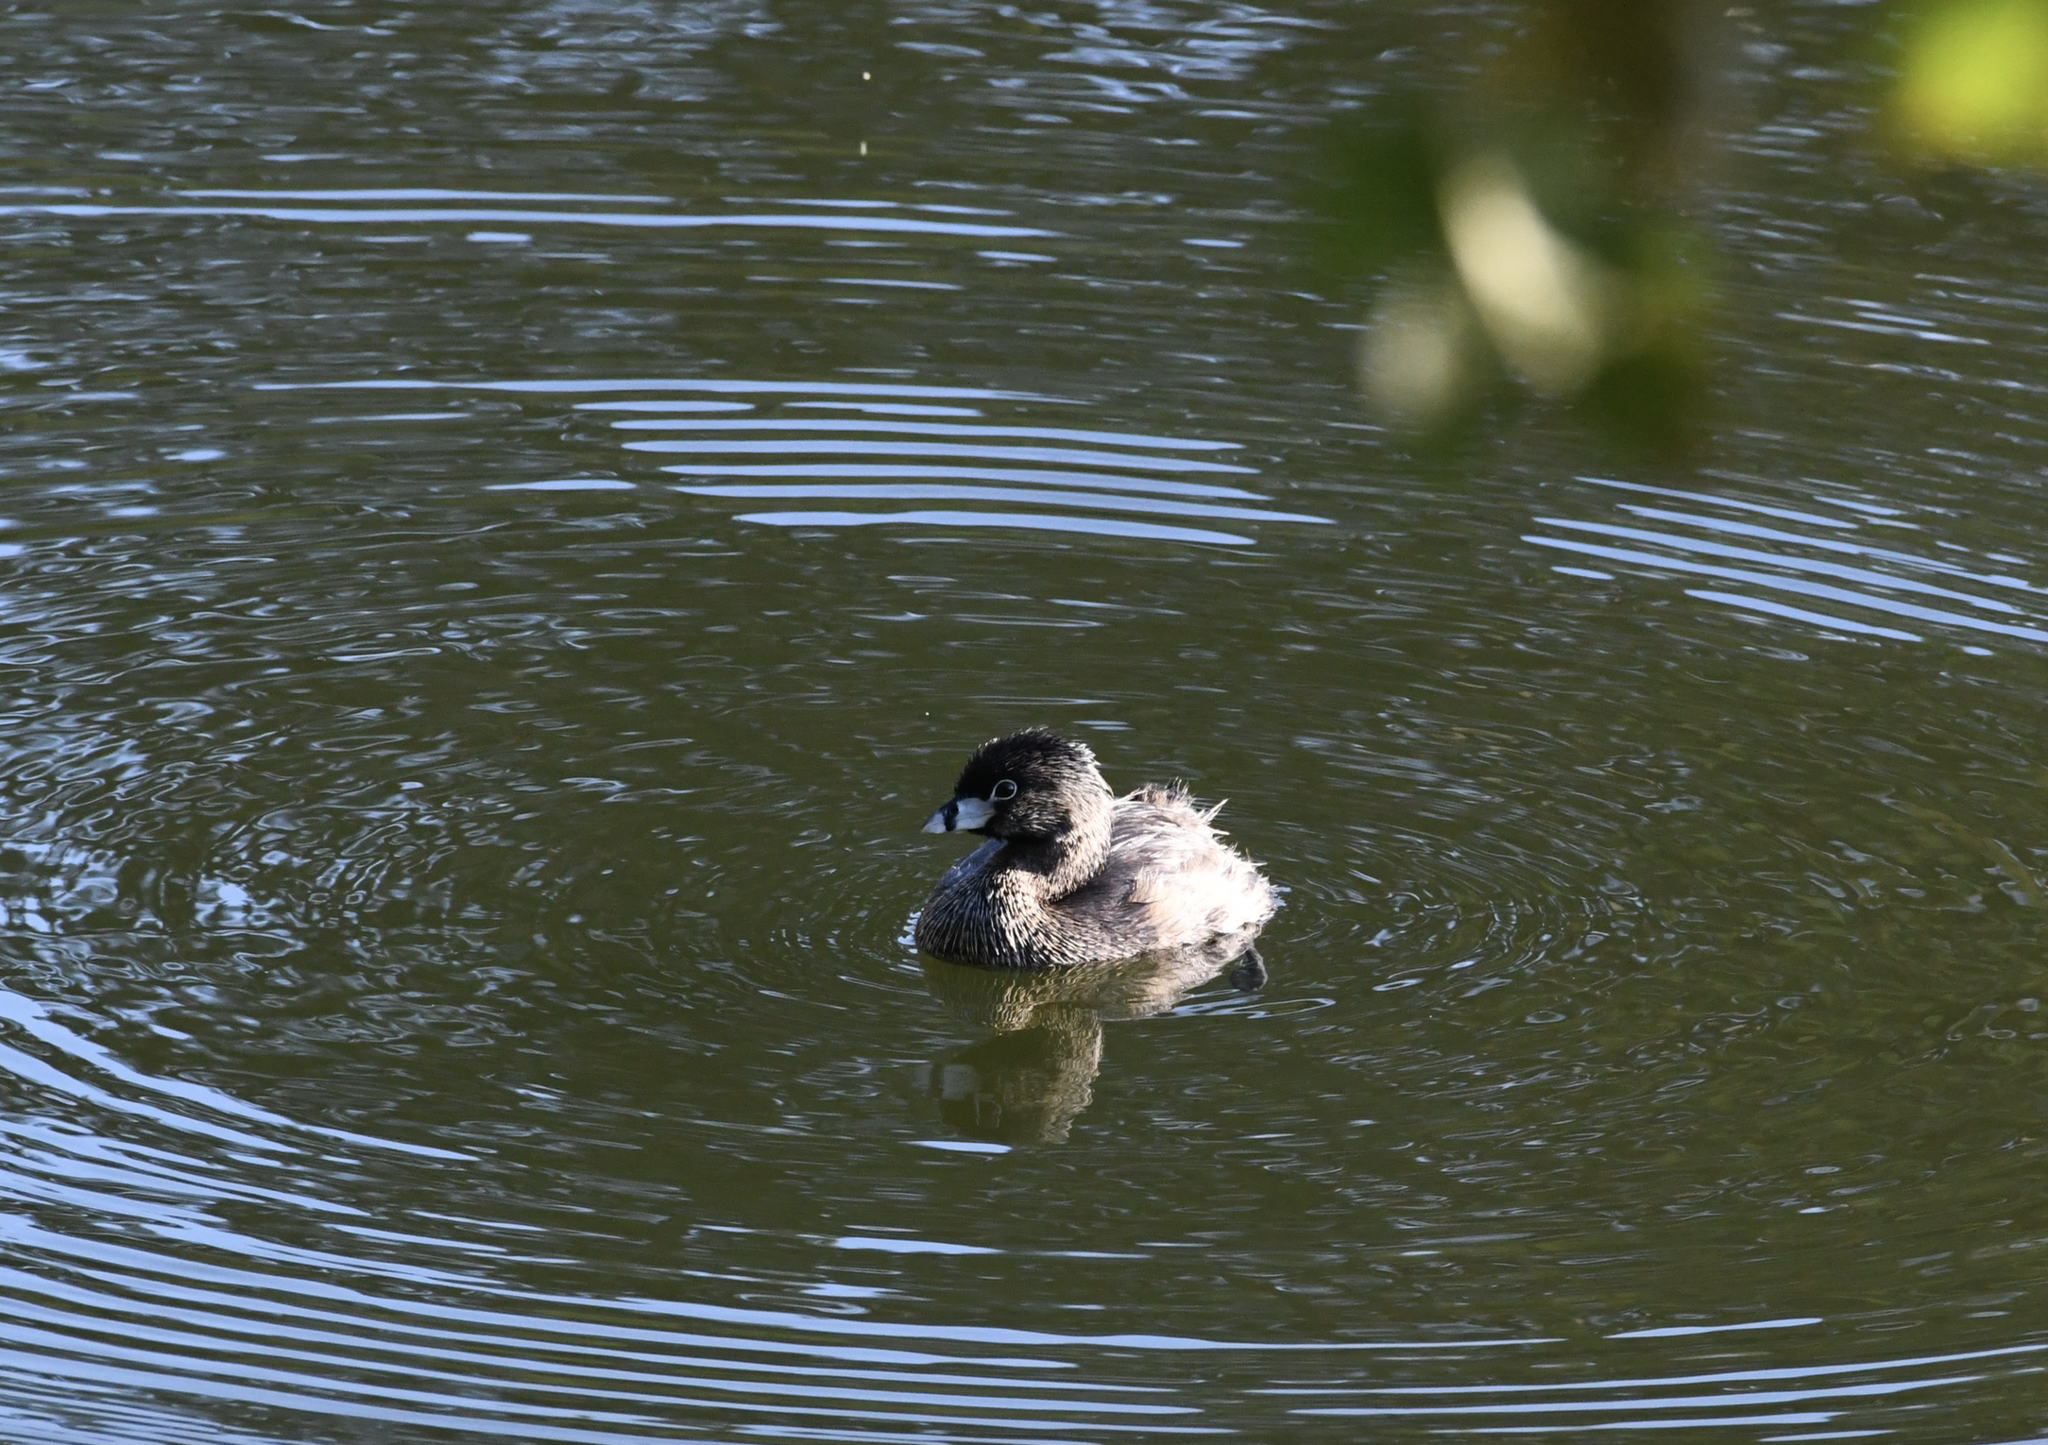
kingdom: Animalia
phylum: Chordata
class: Aves
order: Podicipediformes
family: Podicipedidae
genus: Podilymbus
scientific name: Podilymbus podiceps
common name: Pied-billed grebe
